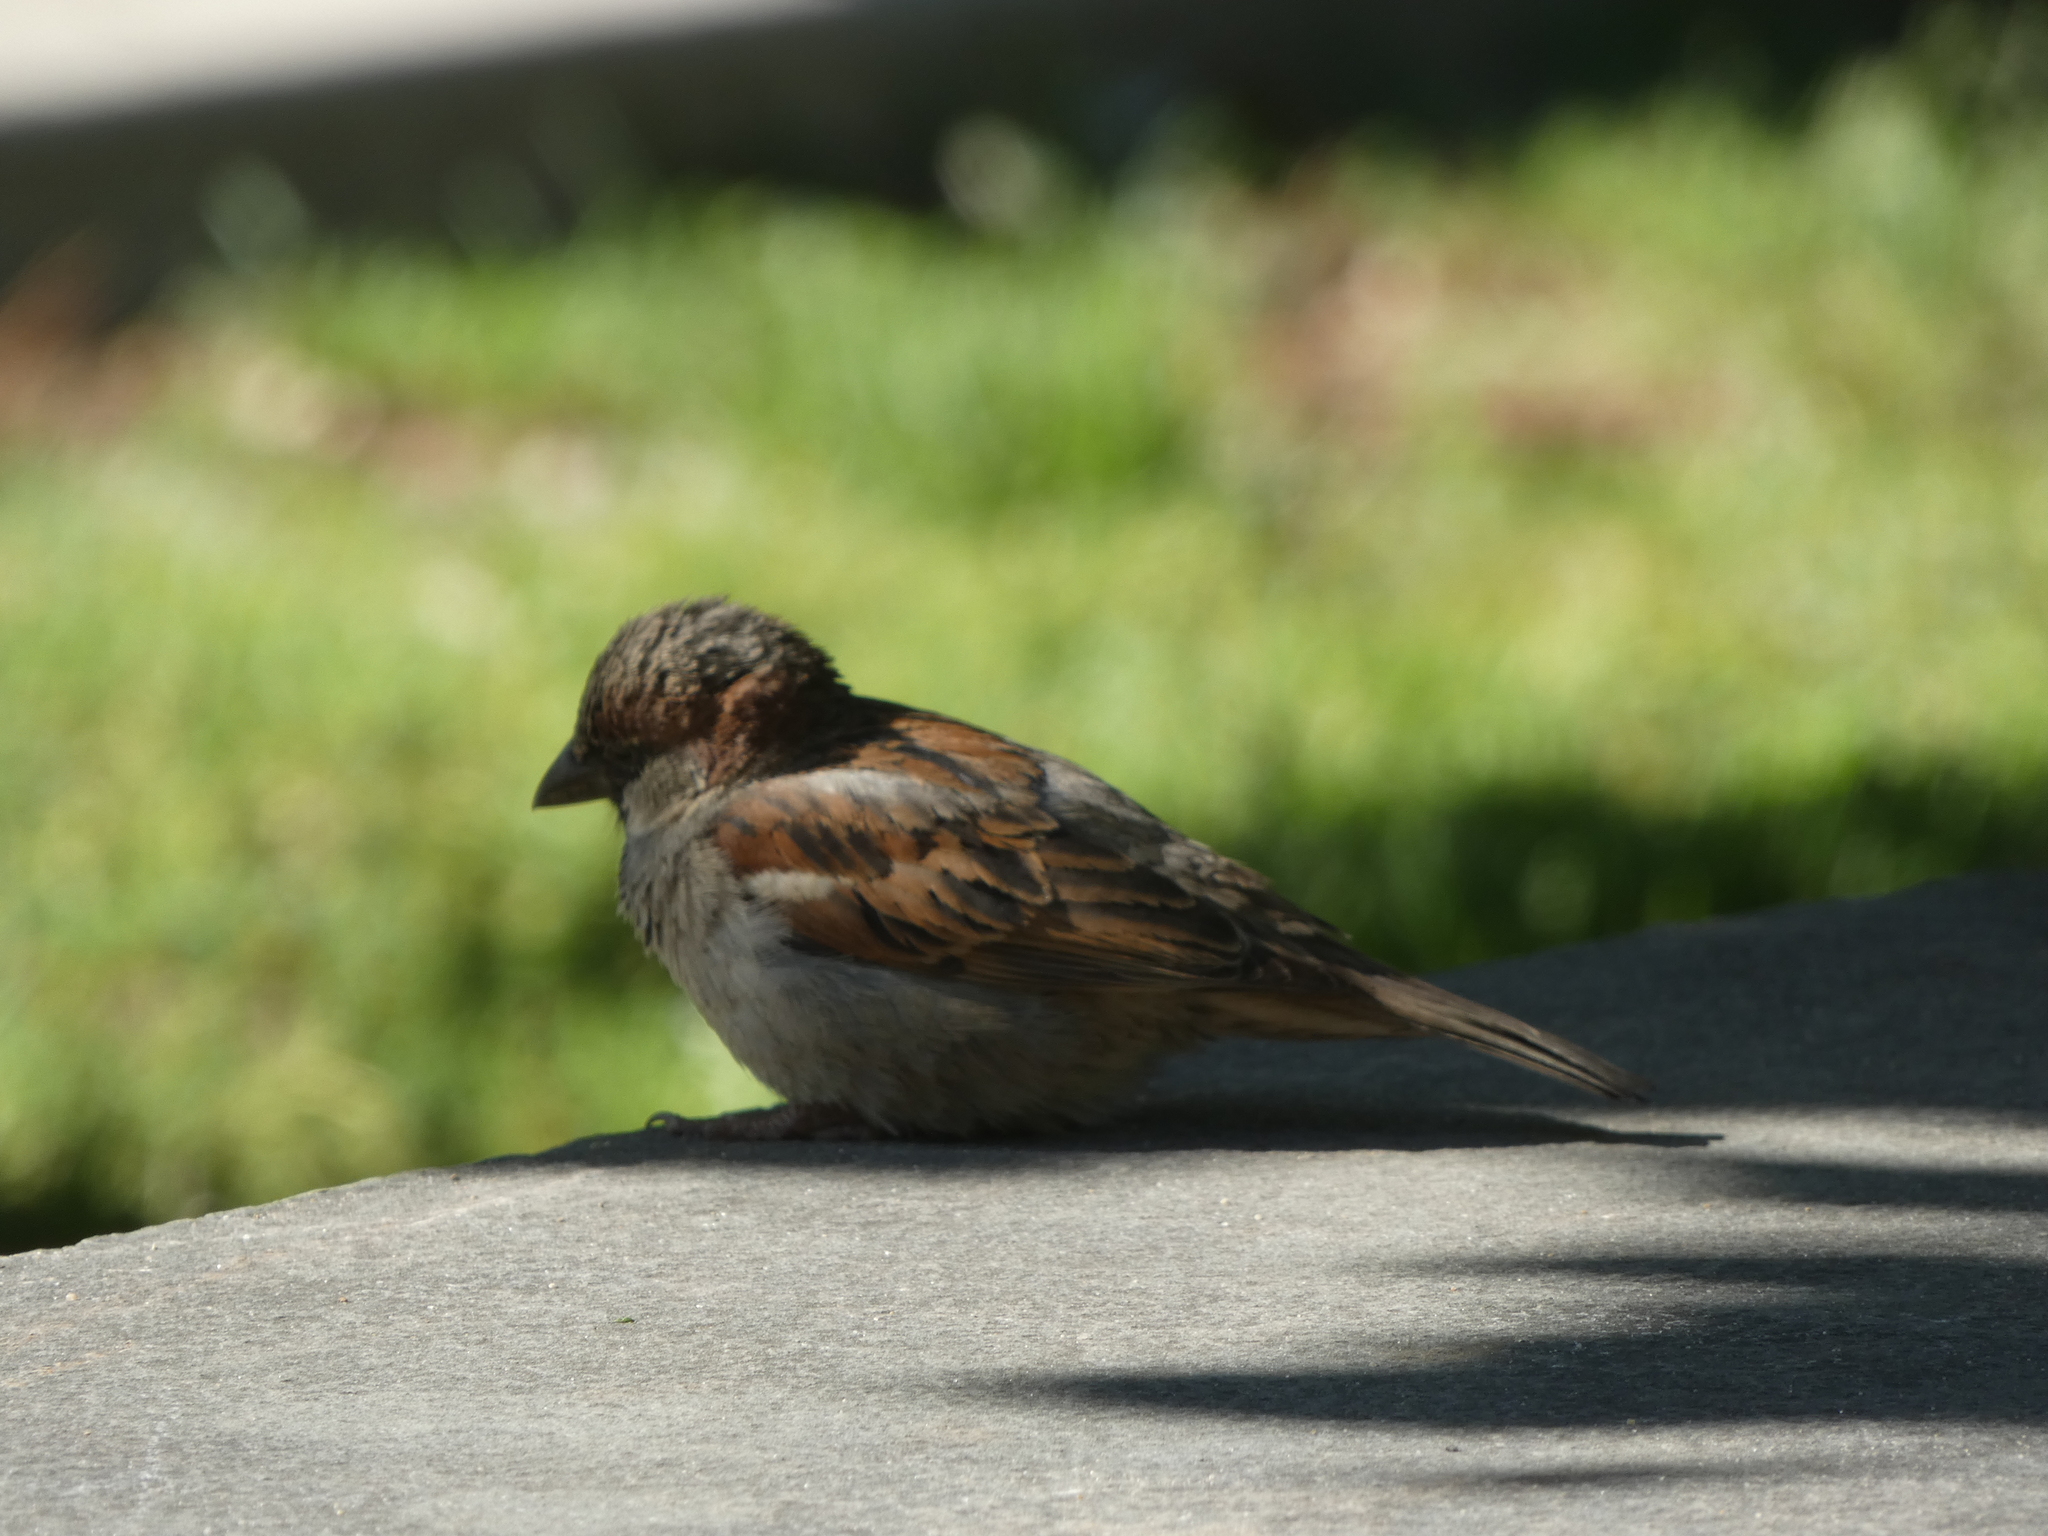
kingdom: Animalia
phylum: Chordata
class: Aves
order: Passeriformes
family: Passeridae
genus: Passer
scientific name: Passer domesticus
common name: House sparrow
